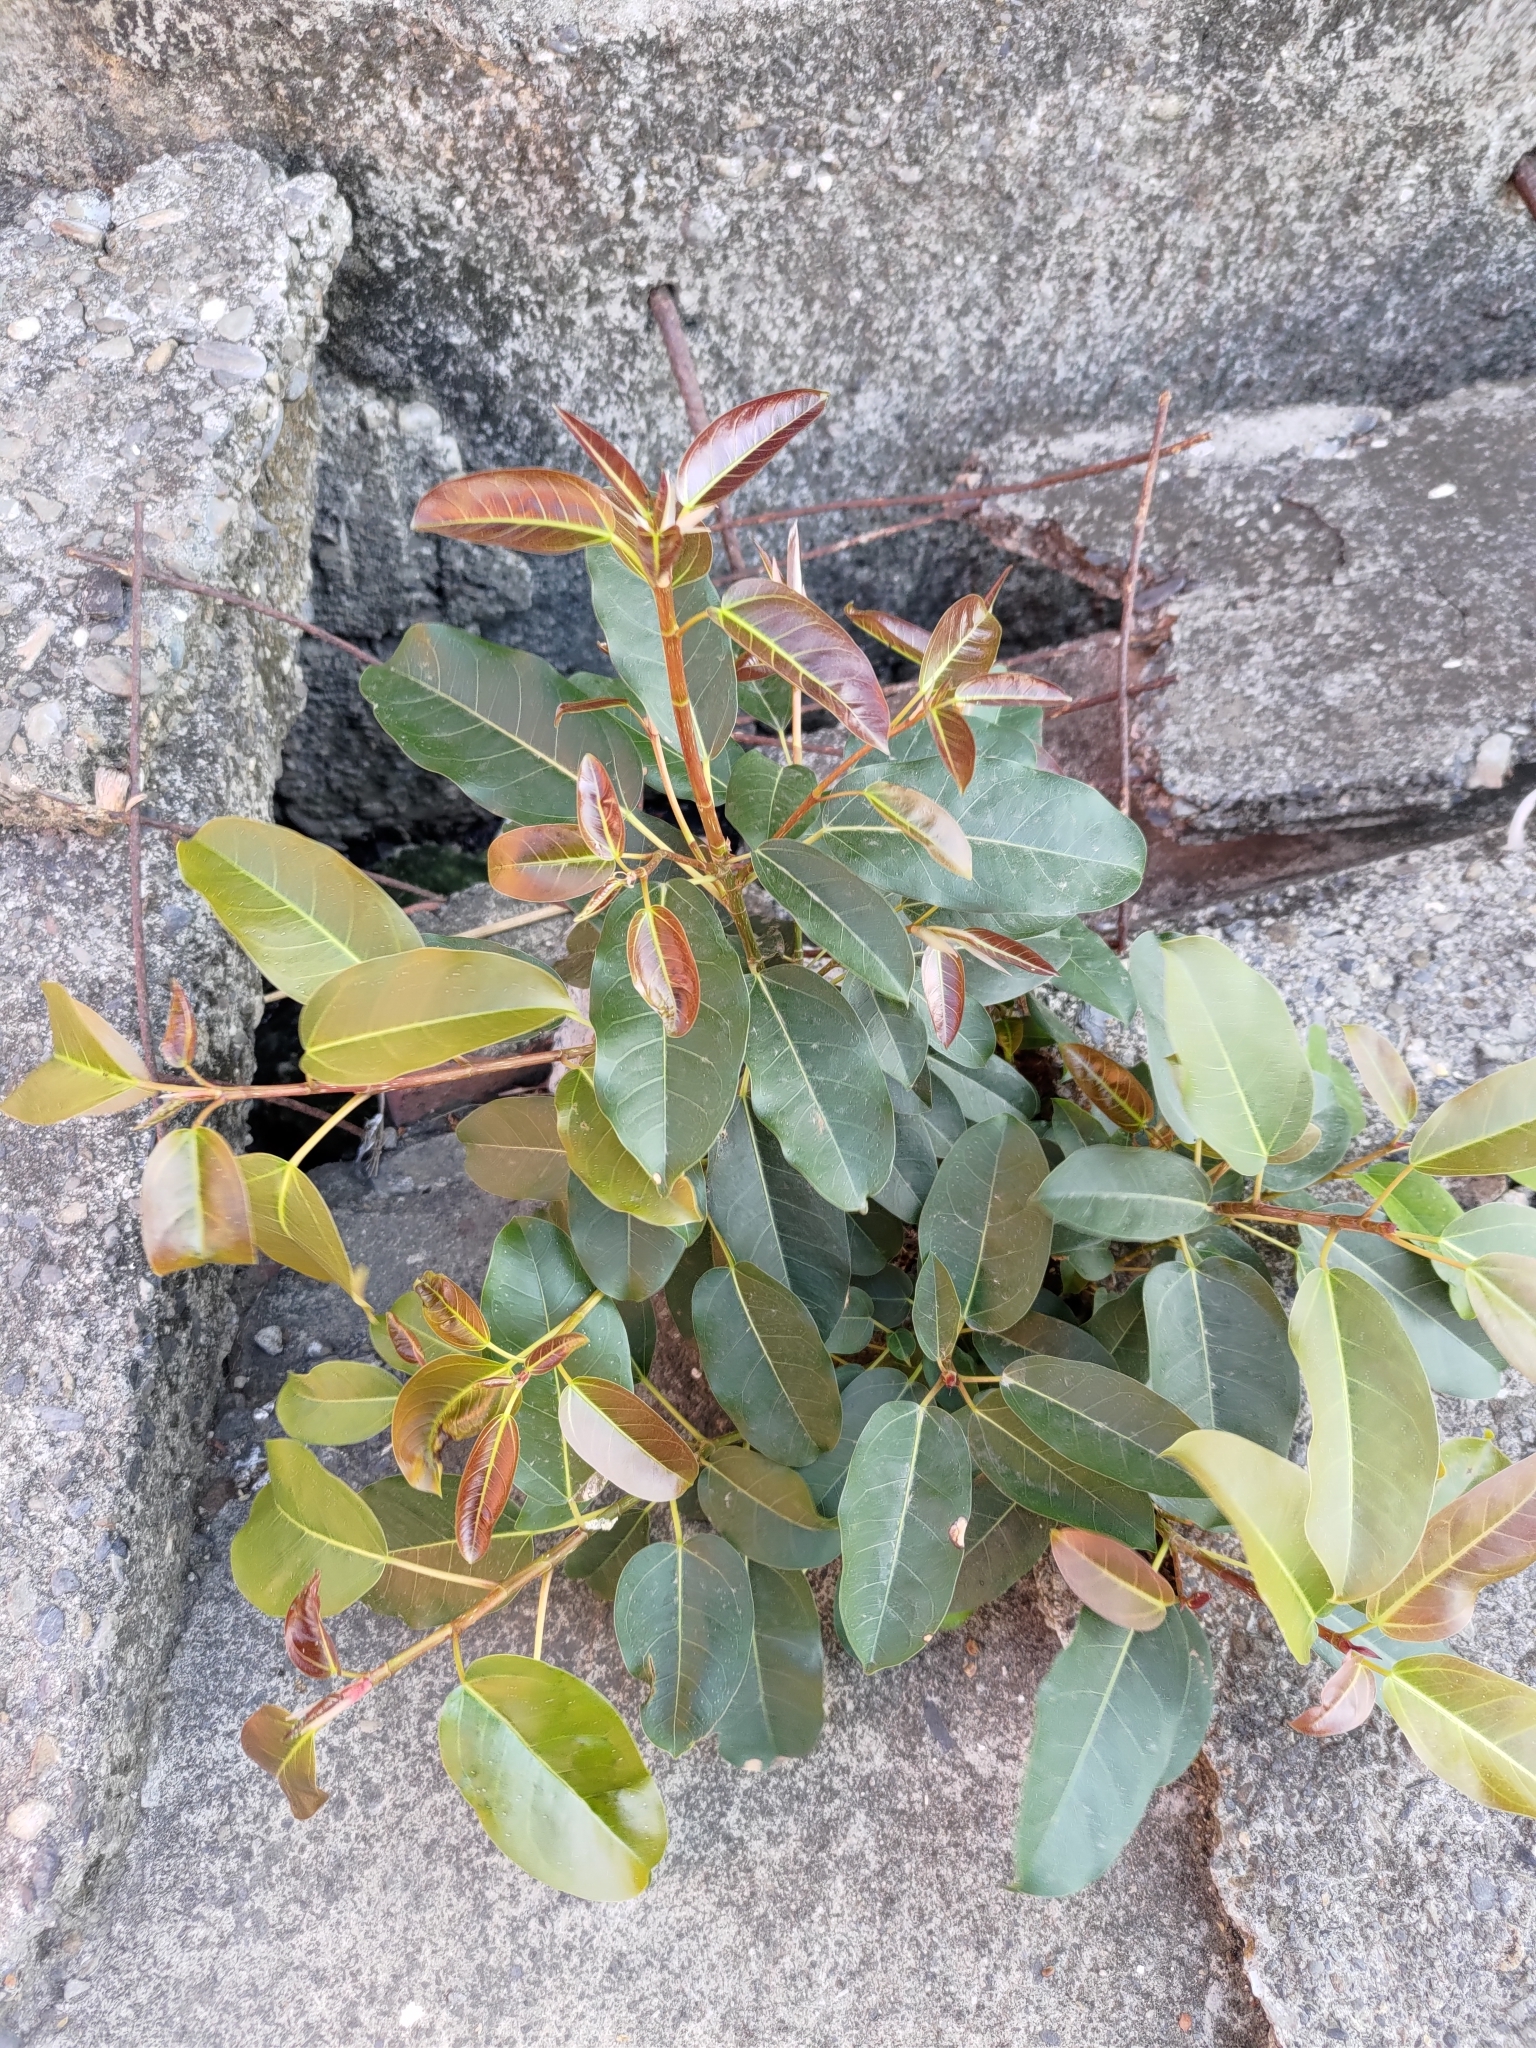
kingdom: Plantae
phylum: Tracheophyta
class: Magnoliopsida
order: Rosales
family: Moraceae
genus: Ficus
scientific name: Ficus subpisocarpa
